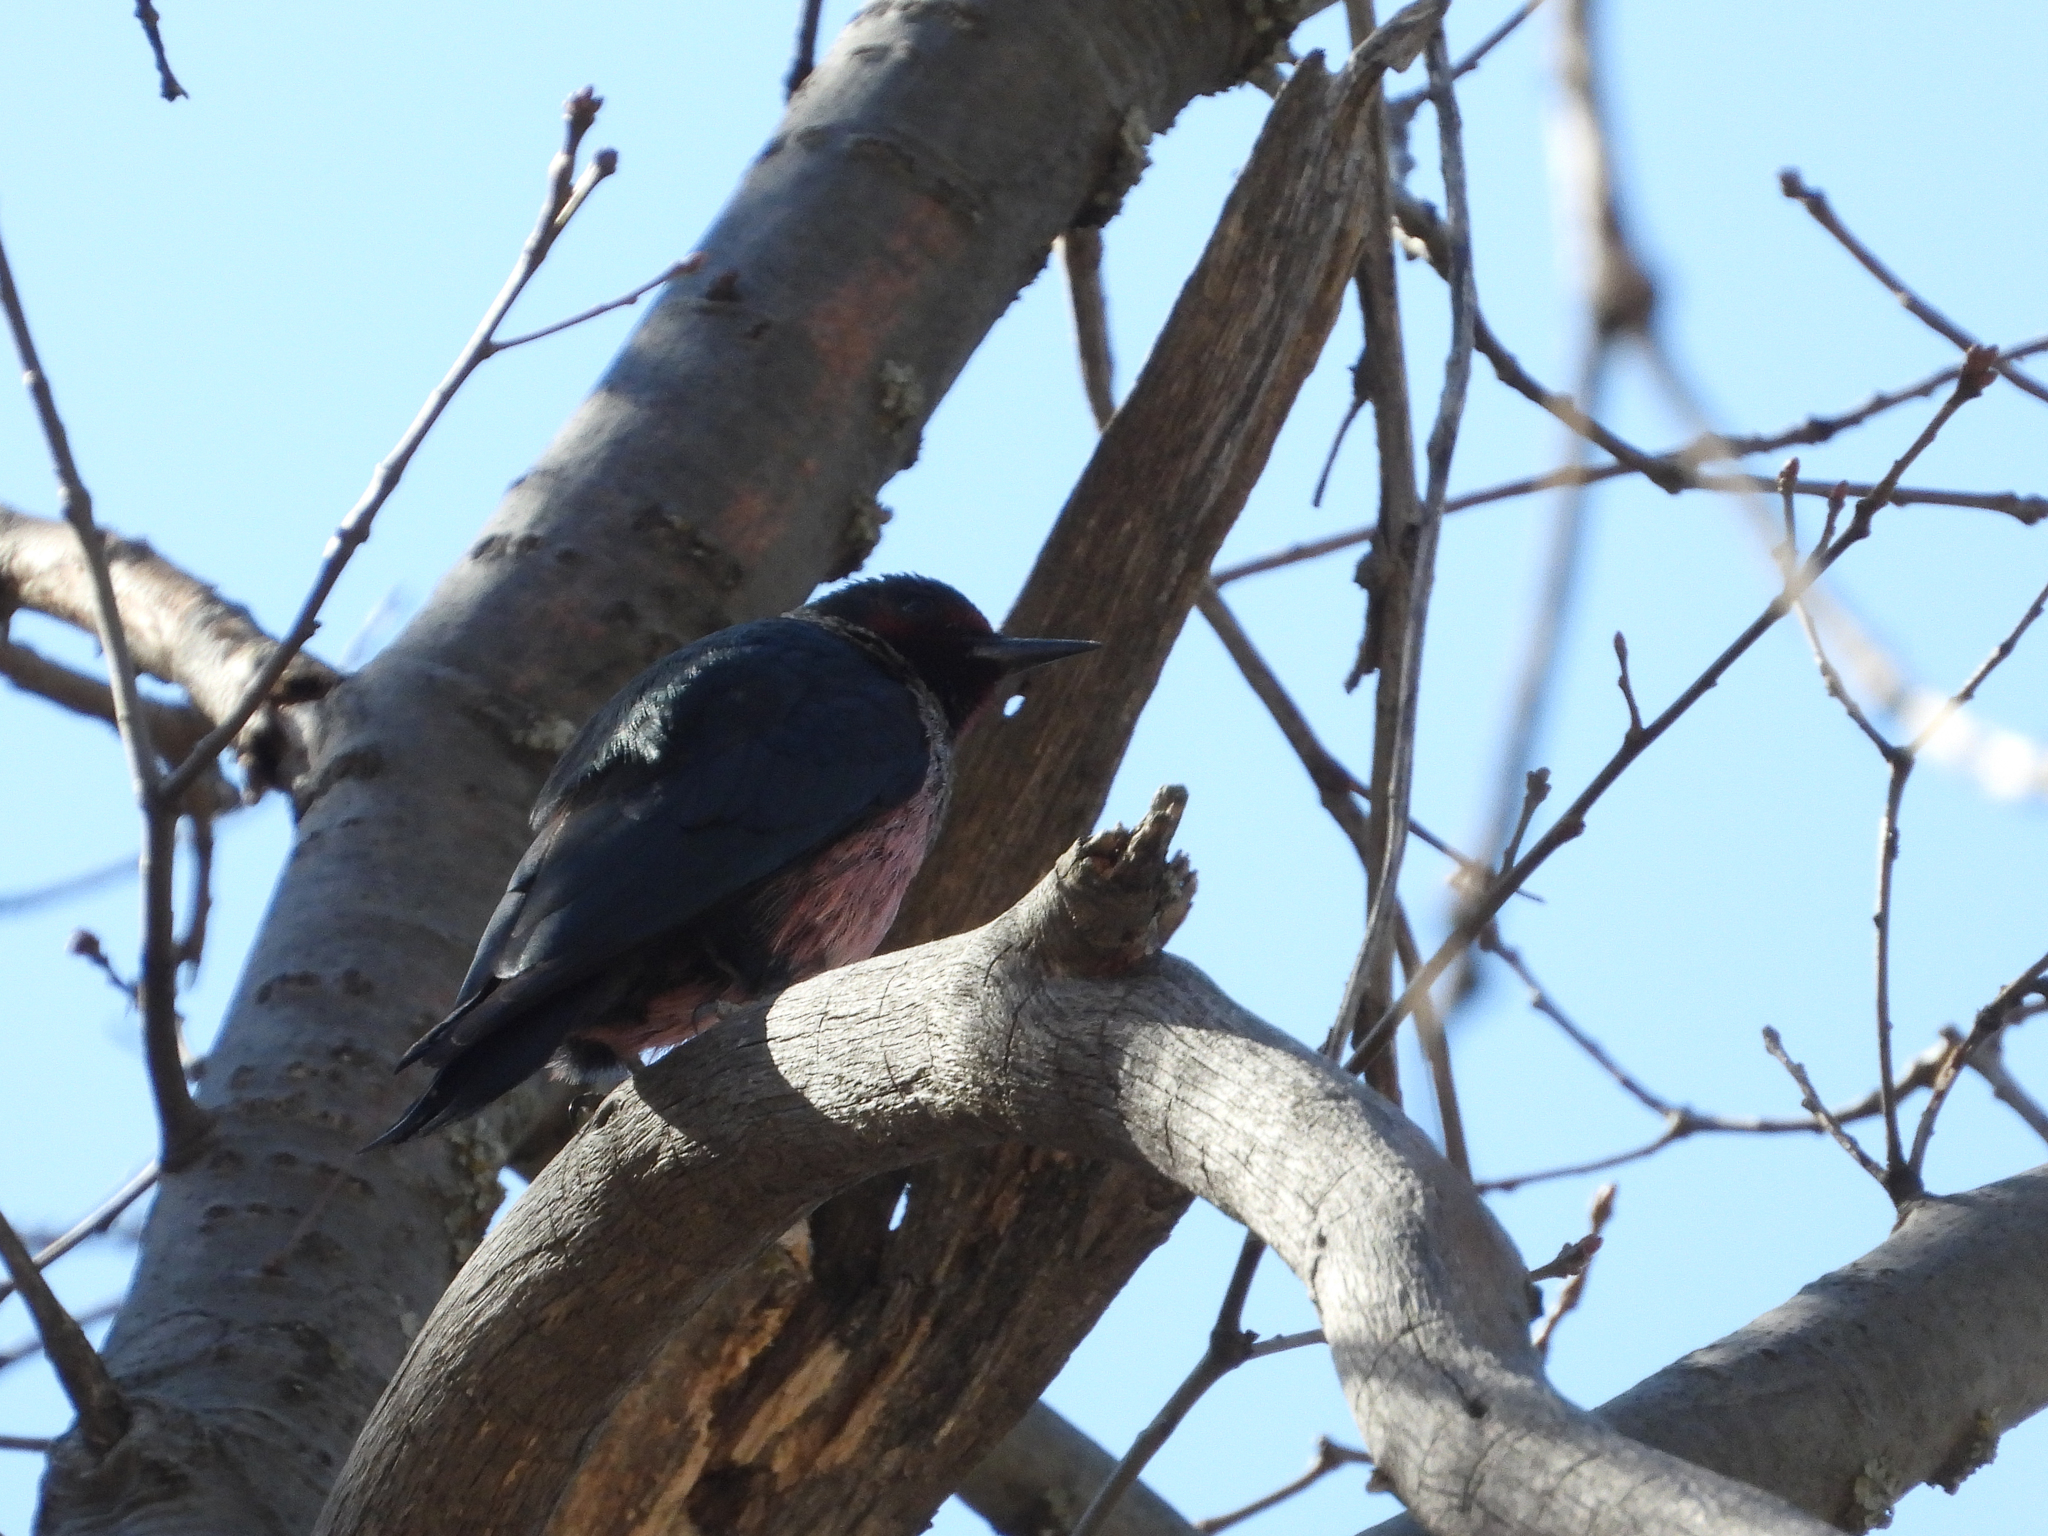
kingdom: Animalia
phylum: Chordata
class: Aves
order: Piciformes
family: Picidae
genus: Melanerpes
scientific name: Melanerpes lewis
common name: Lewis's woodpecker
